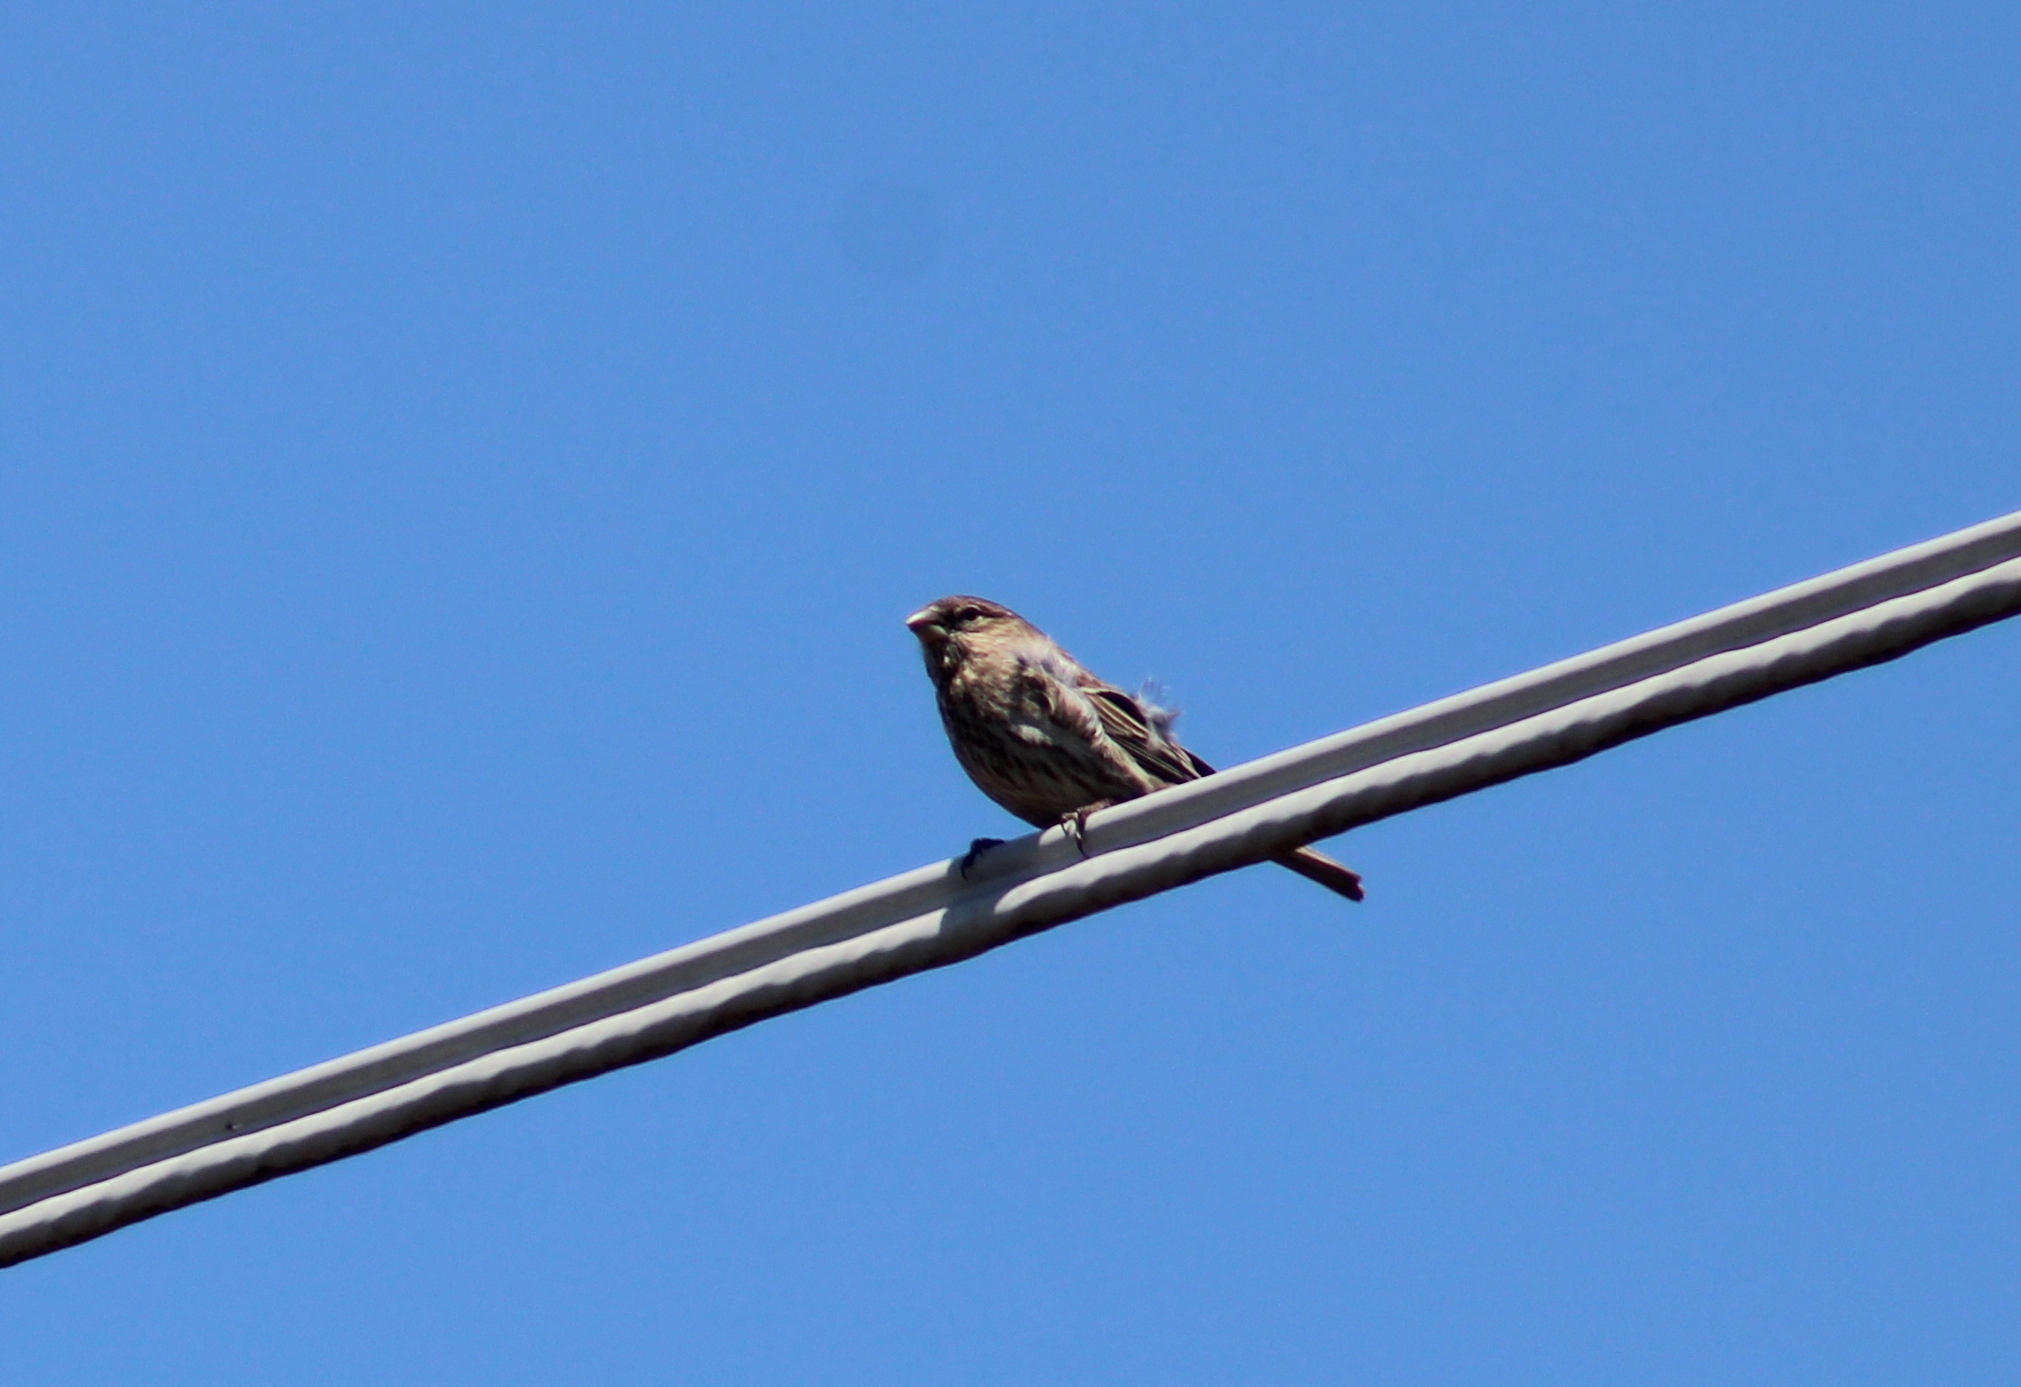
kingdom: Animalia
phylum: Chordata
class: Aves
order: Passeriformes
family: Fringillidae
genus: Haemorhous
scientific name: Haemorhous mexicanus
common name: House finch
